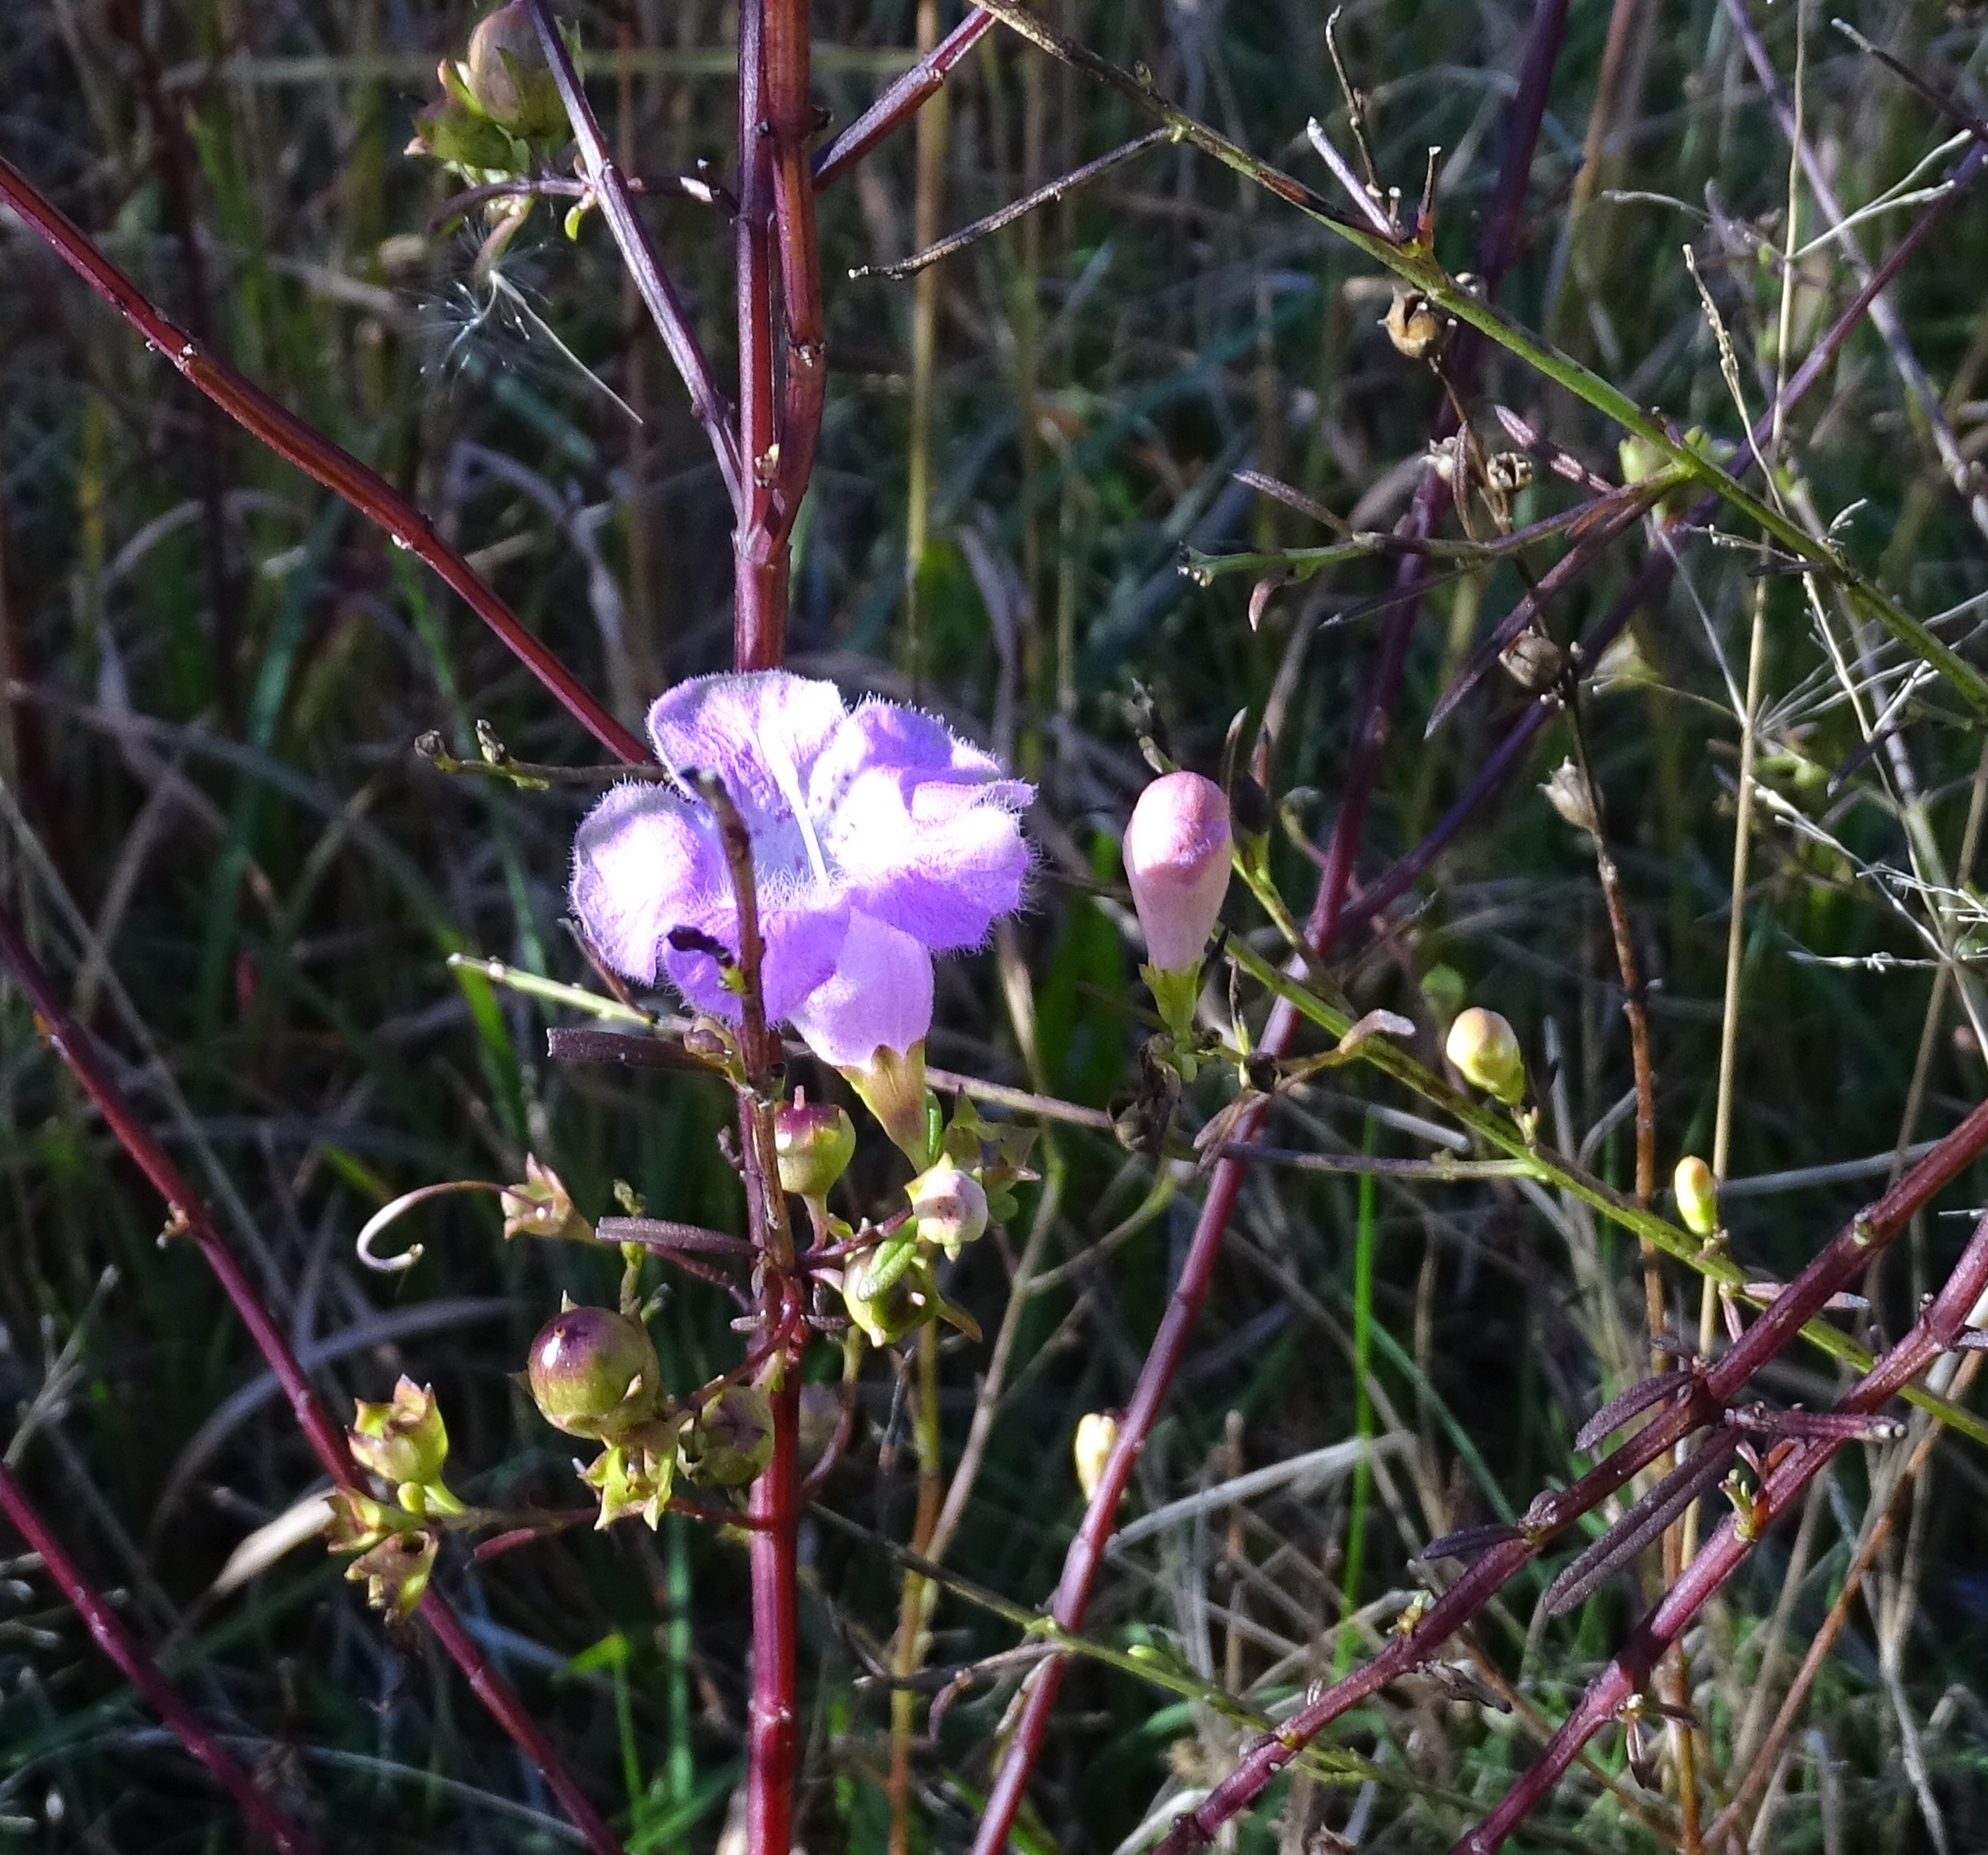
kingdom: Plantae
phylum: Tracheophyta
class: Magnoliopsida
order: Lamiales
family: Orobanchaceae
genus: Agalinis
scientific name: Agalinis purpurea
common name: Purple false foxglove
